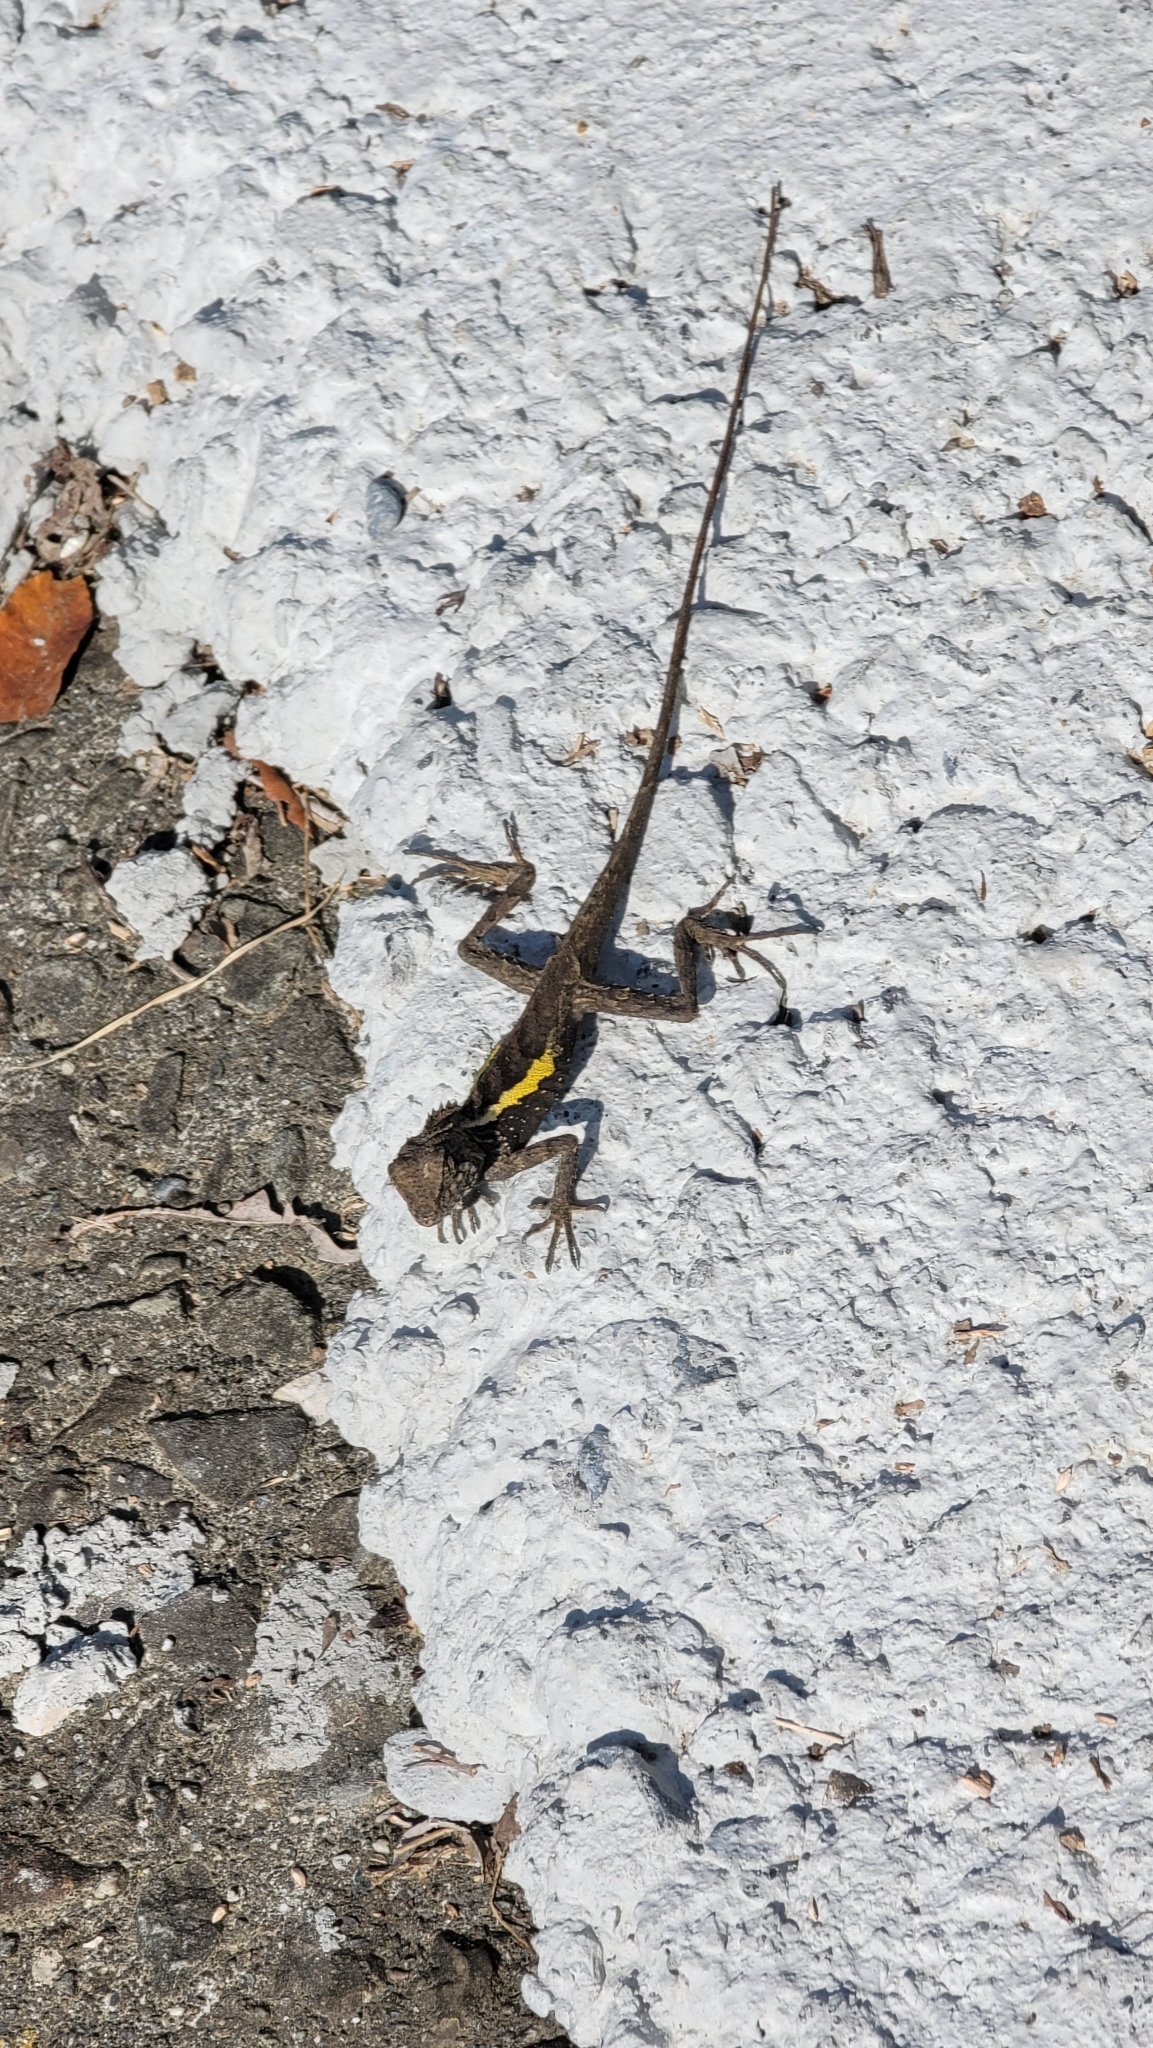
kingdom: Animalia
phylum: Chordata
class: Squamata
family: Agamidae
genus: Diploderma
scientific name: Diploderma swinhonis
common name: Taiwan japalure
